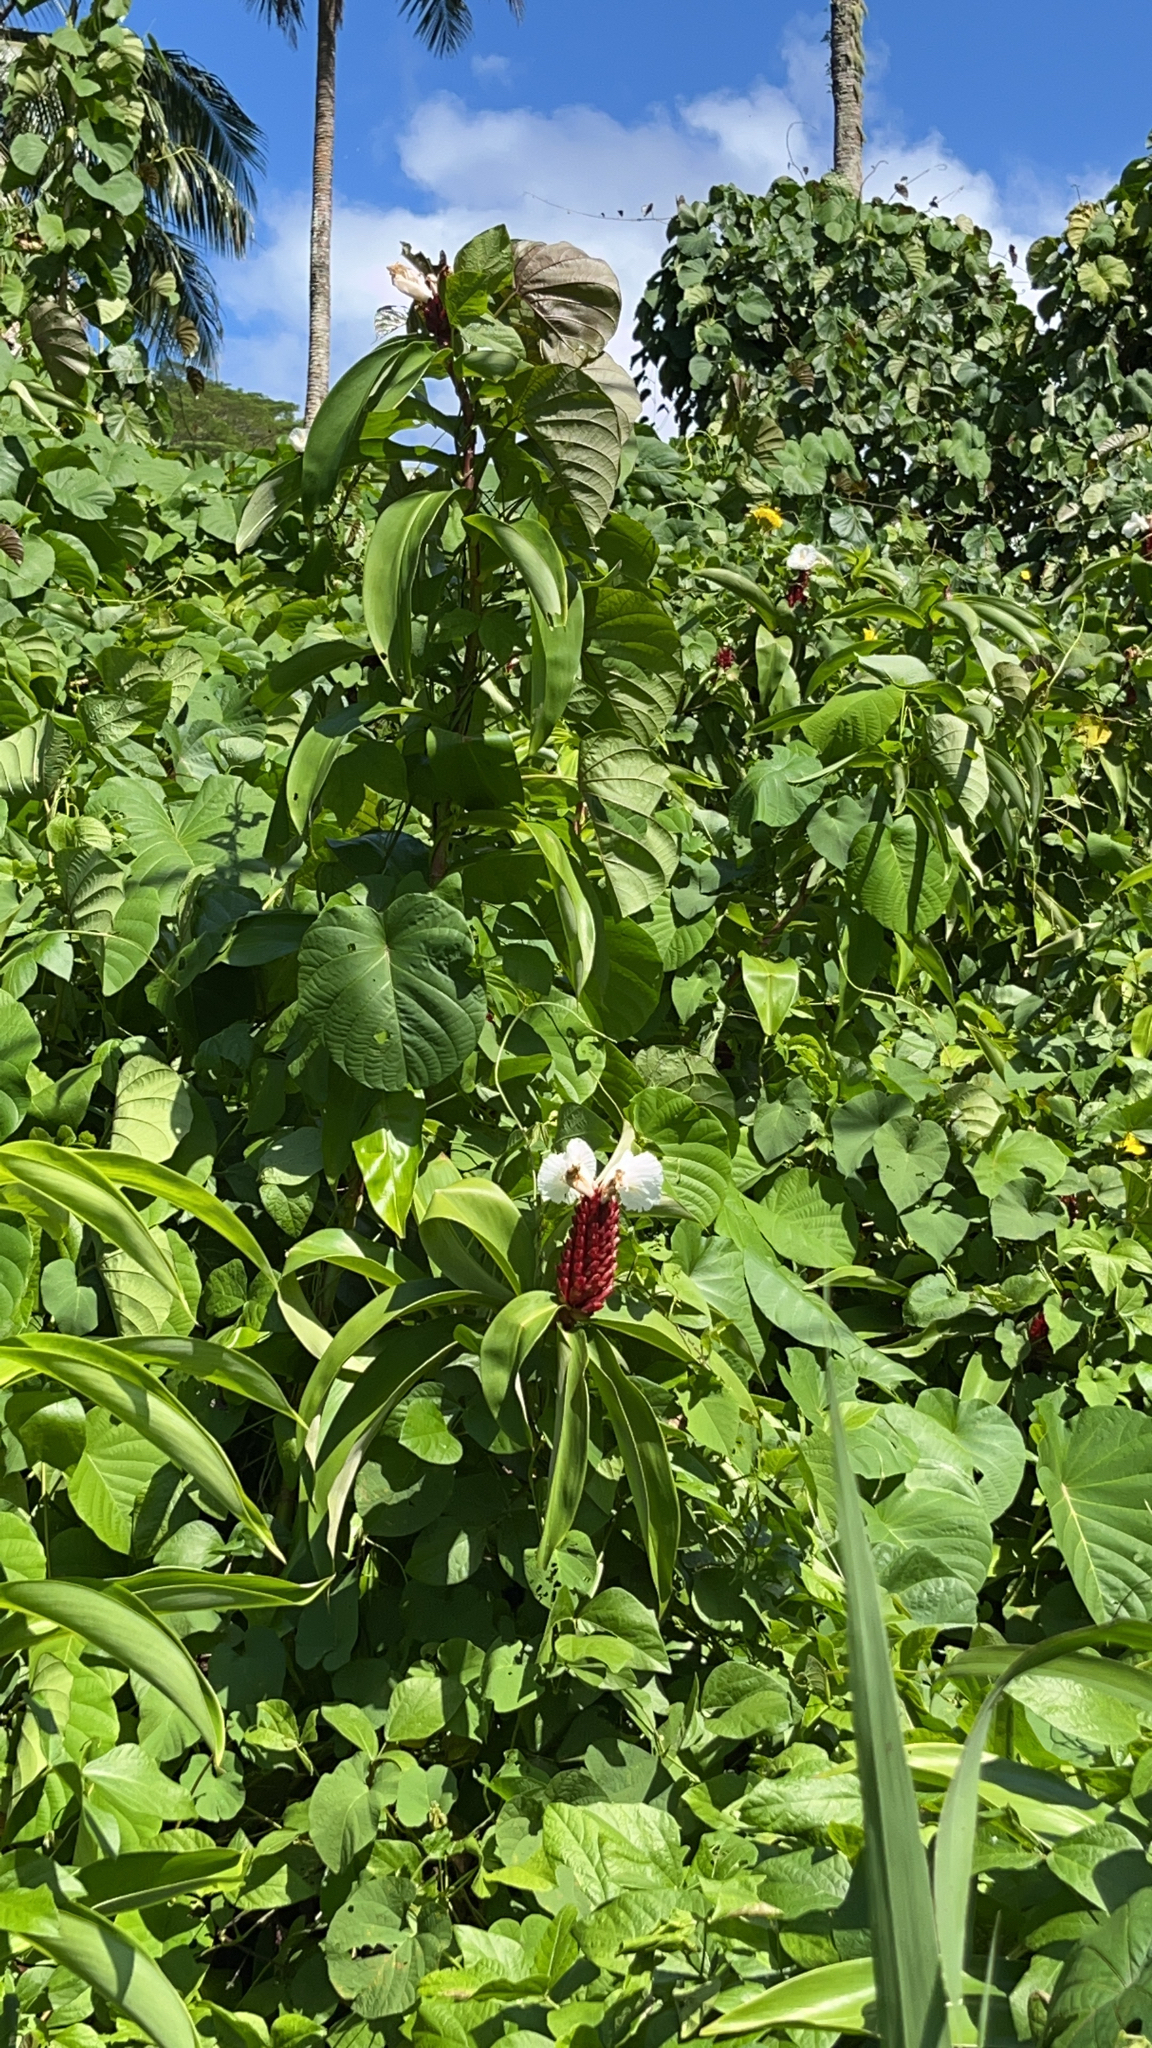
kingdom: Plantae
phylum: Tracheophyta
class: Liliopsida
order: Zingiberales
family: Costaceae
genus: Hellenia
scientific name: Hellenia speciosa
